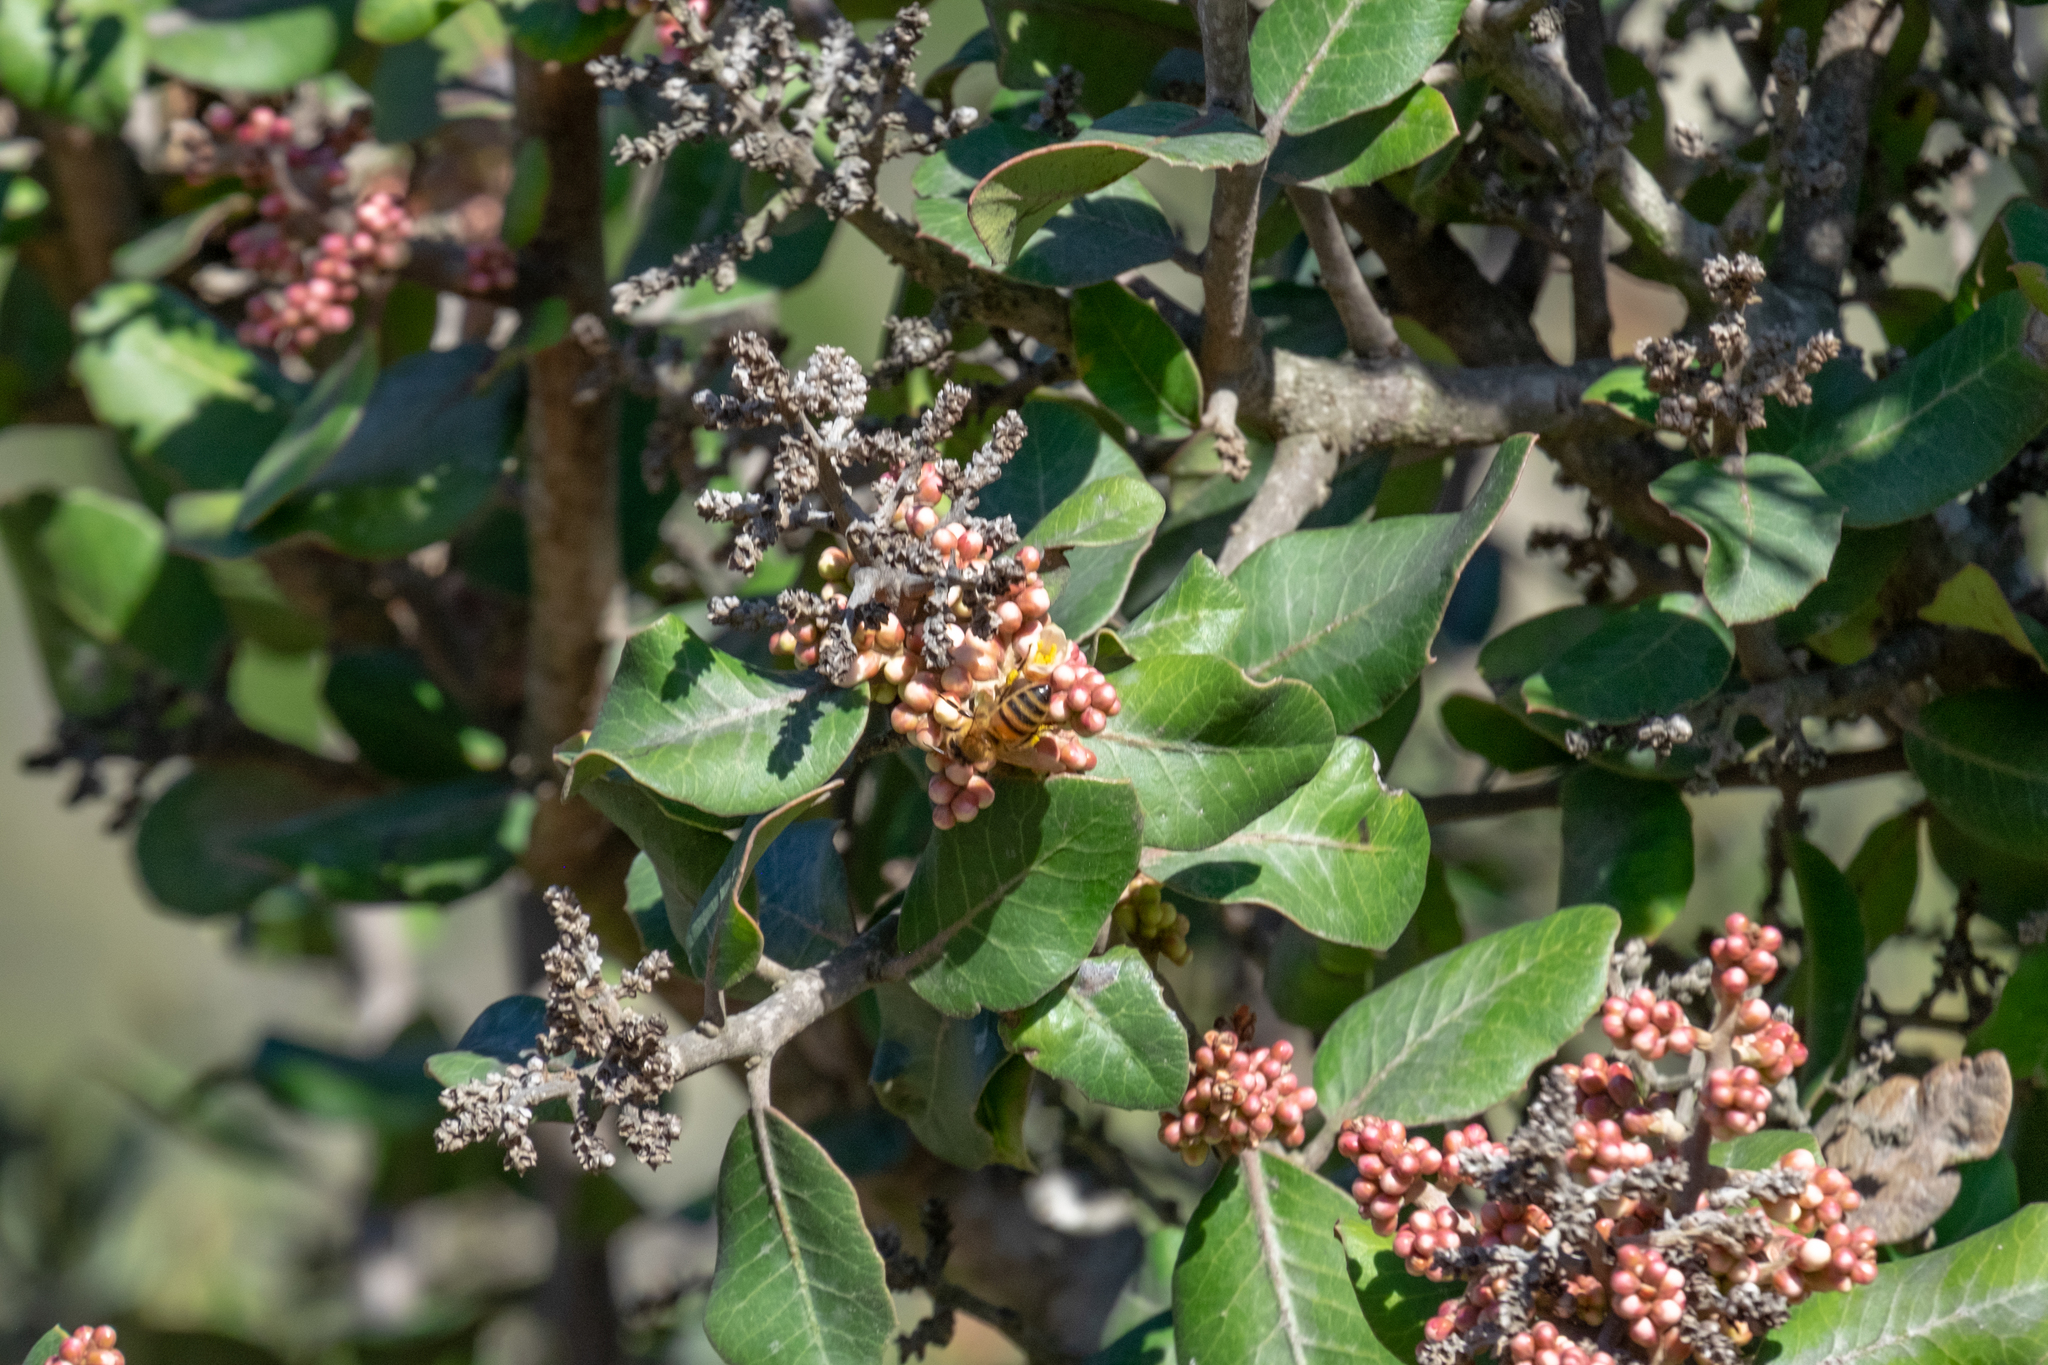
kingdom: Plantae
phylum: Tracheophyta
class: Magnoliopsida
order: Sapindales
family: Anacardiaceae
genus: Rhus
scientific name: Rhus integrifolia
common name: Lemonade sumac
